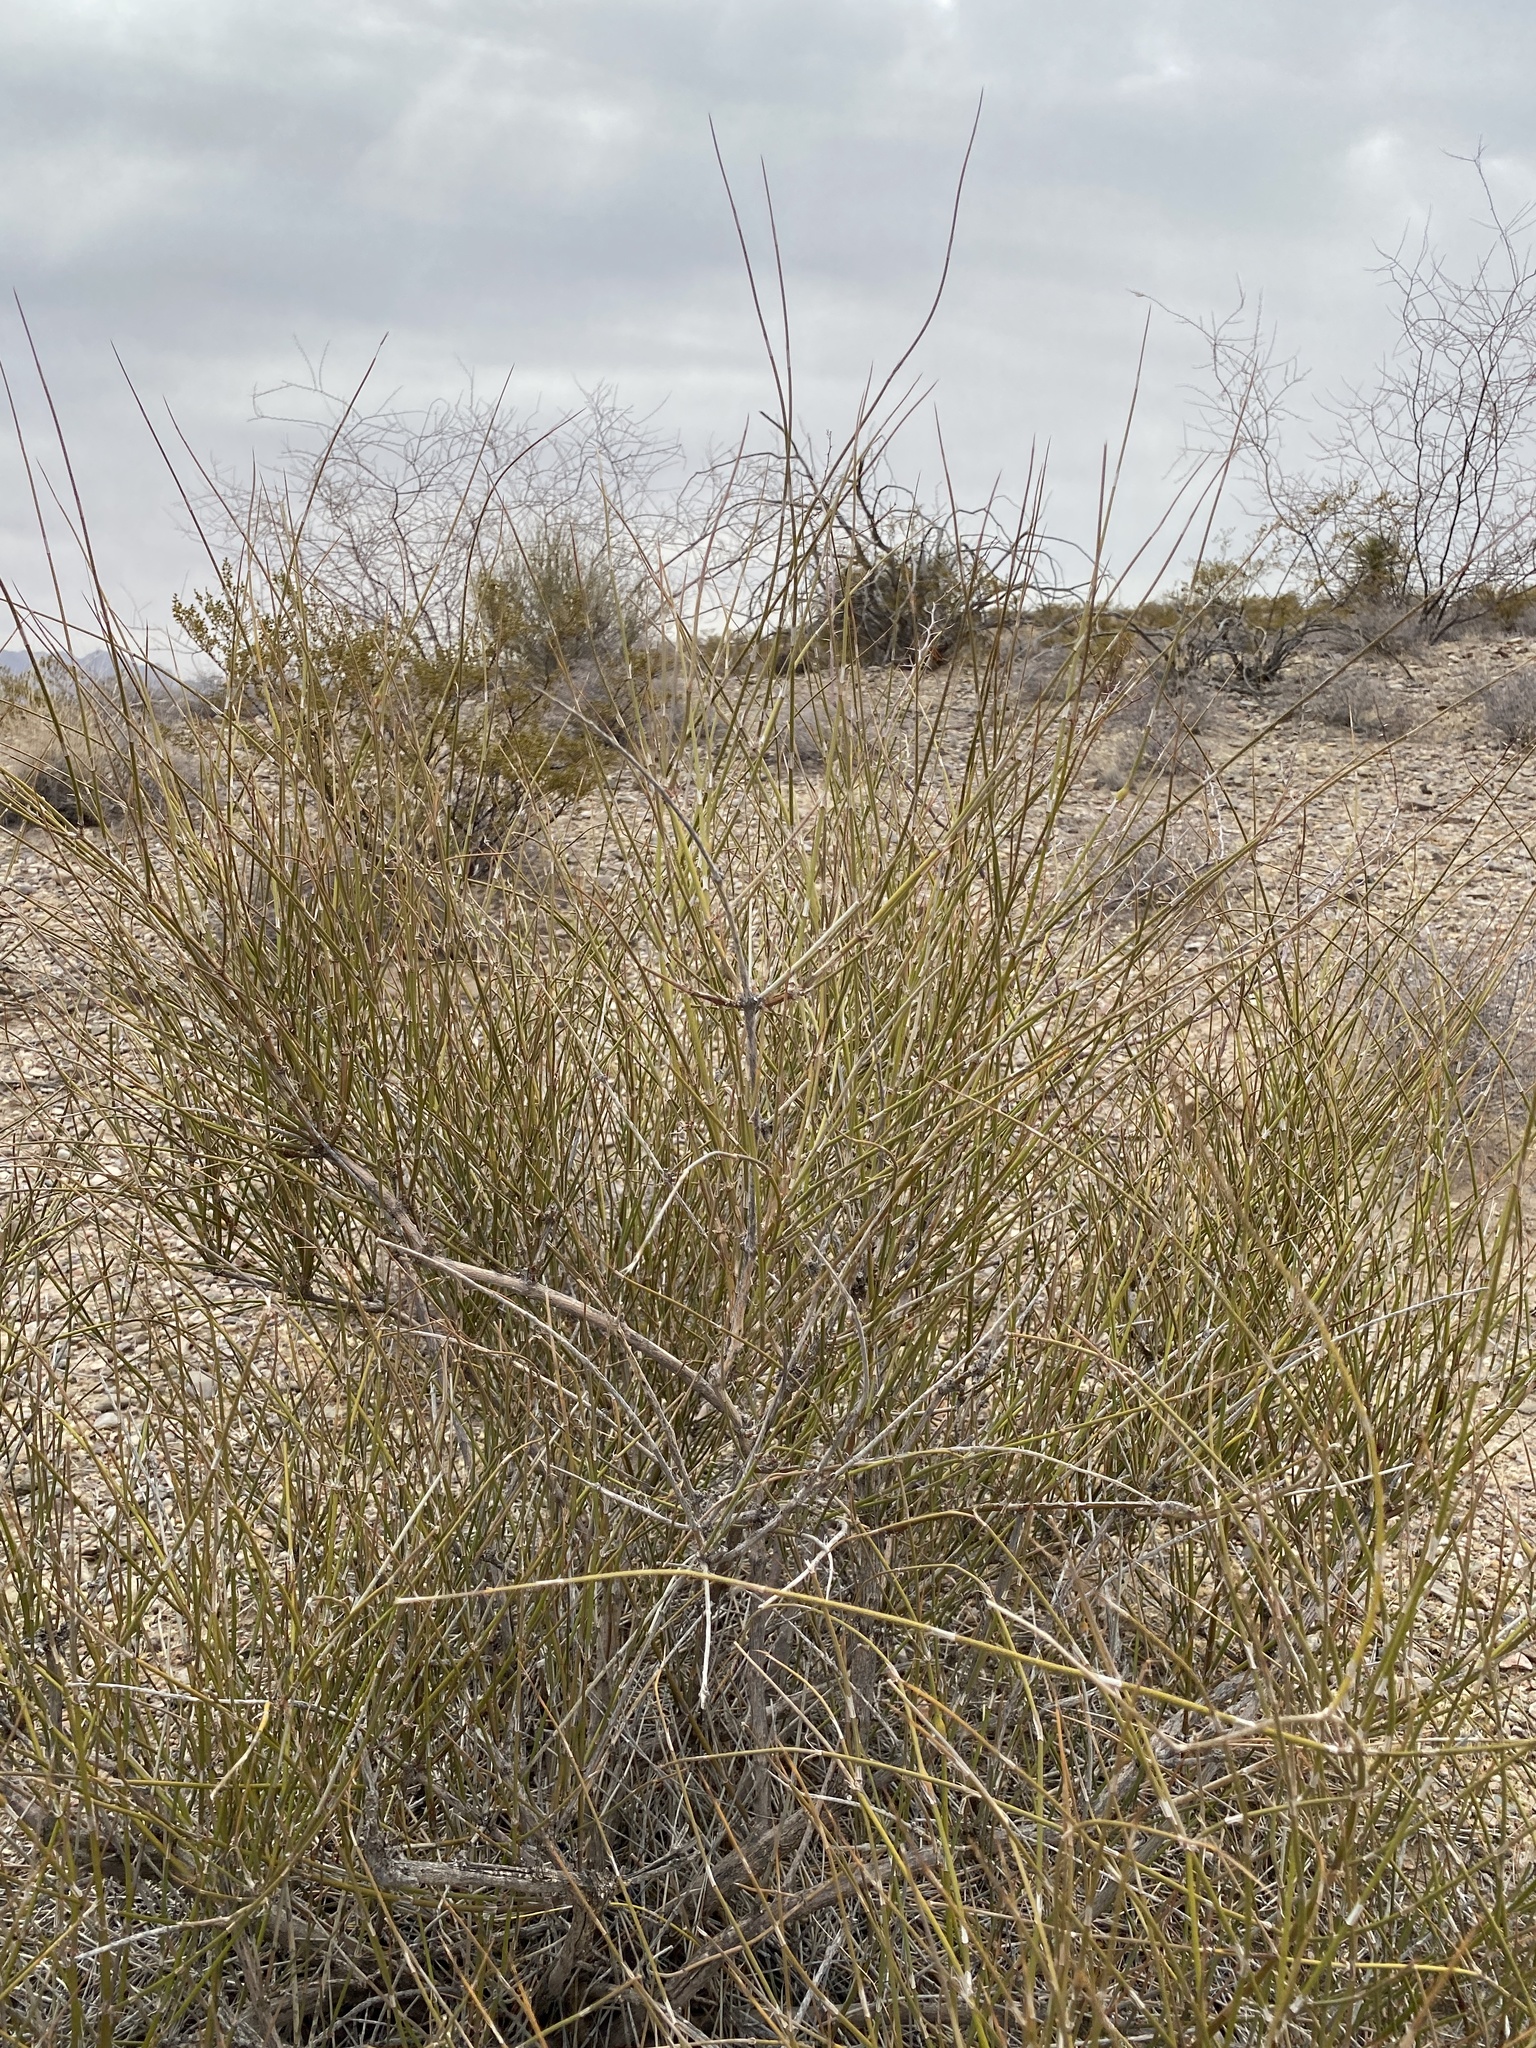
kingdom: Plantae
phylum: Tracheophyta
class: Gnetopsida
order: Ephedrales
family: Ephedraceae
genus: Ephedra
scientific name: Ephedra trifurca
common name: Mexican-tea
